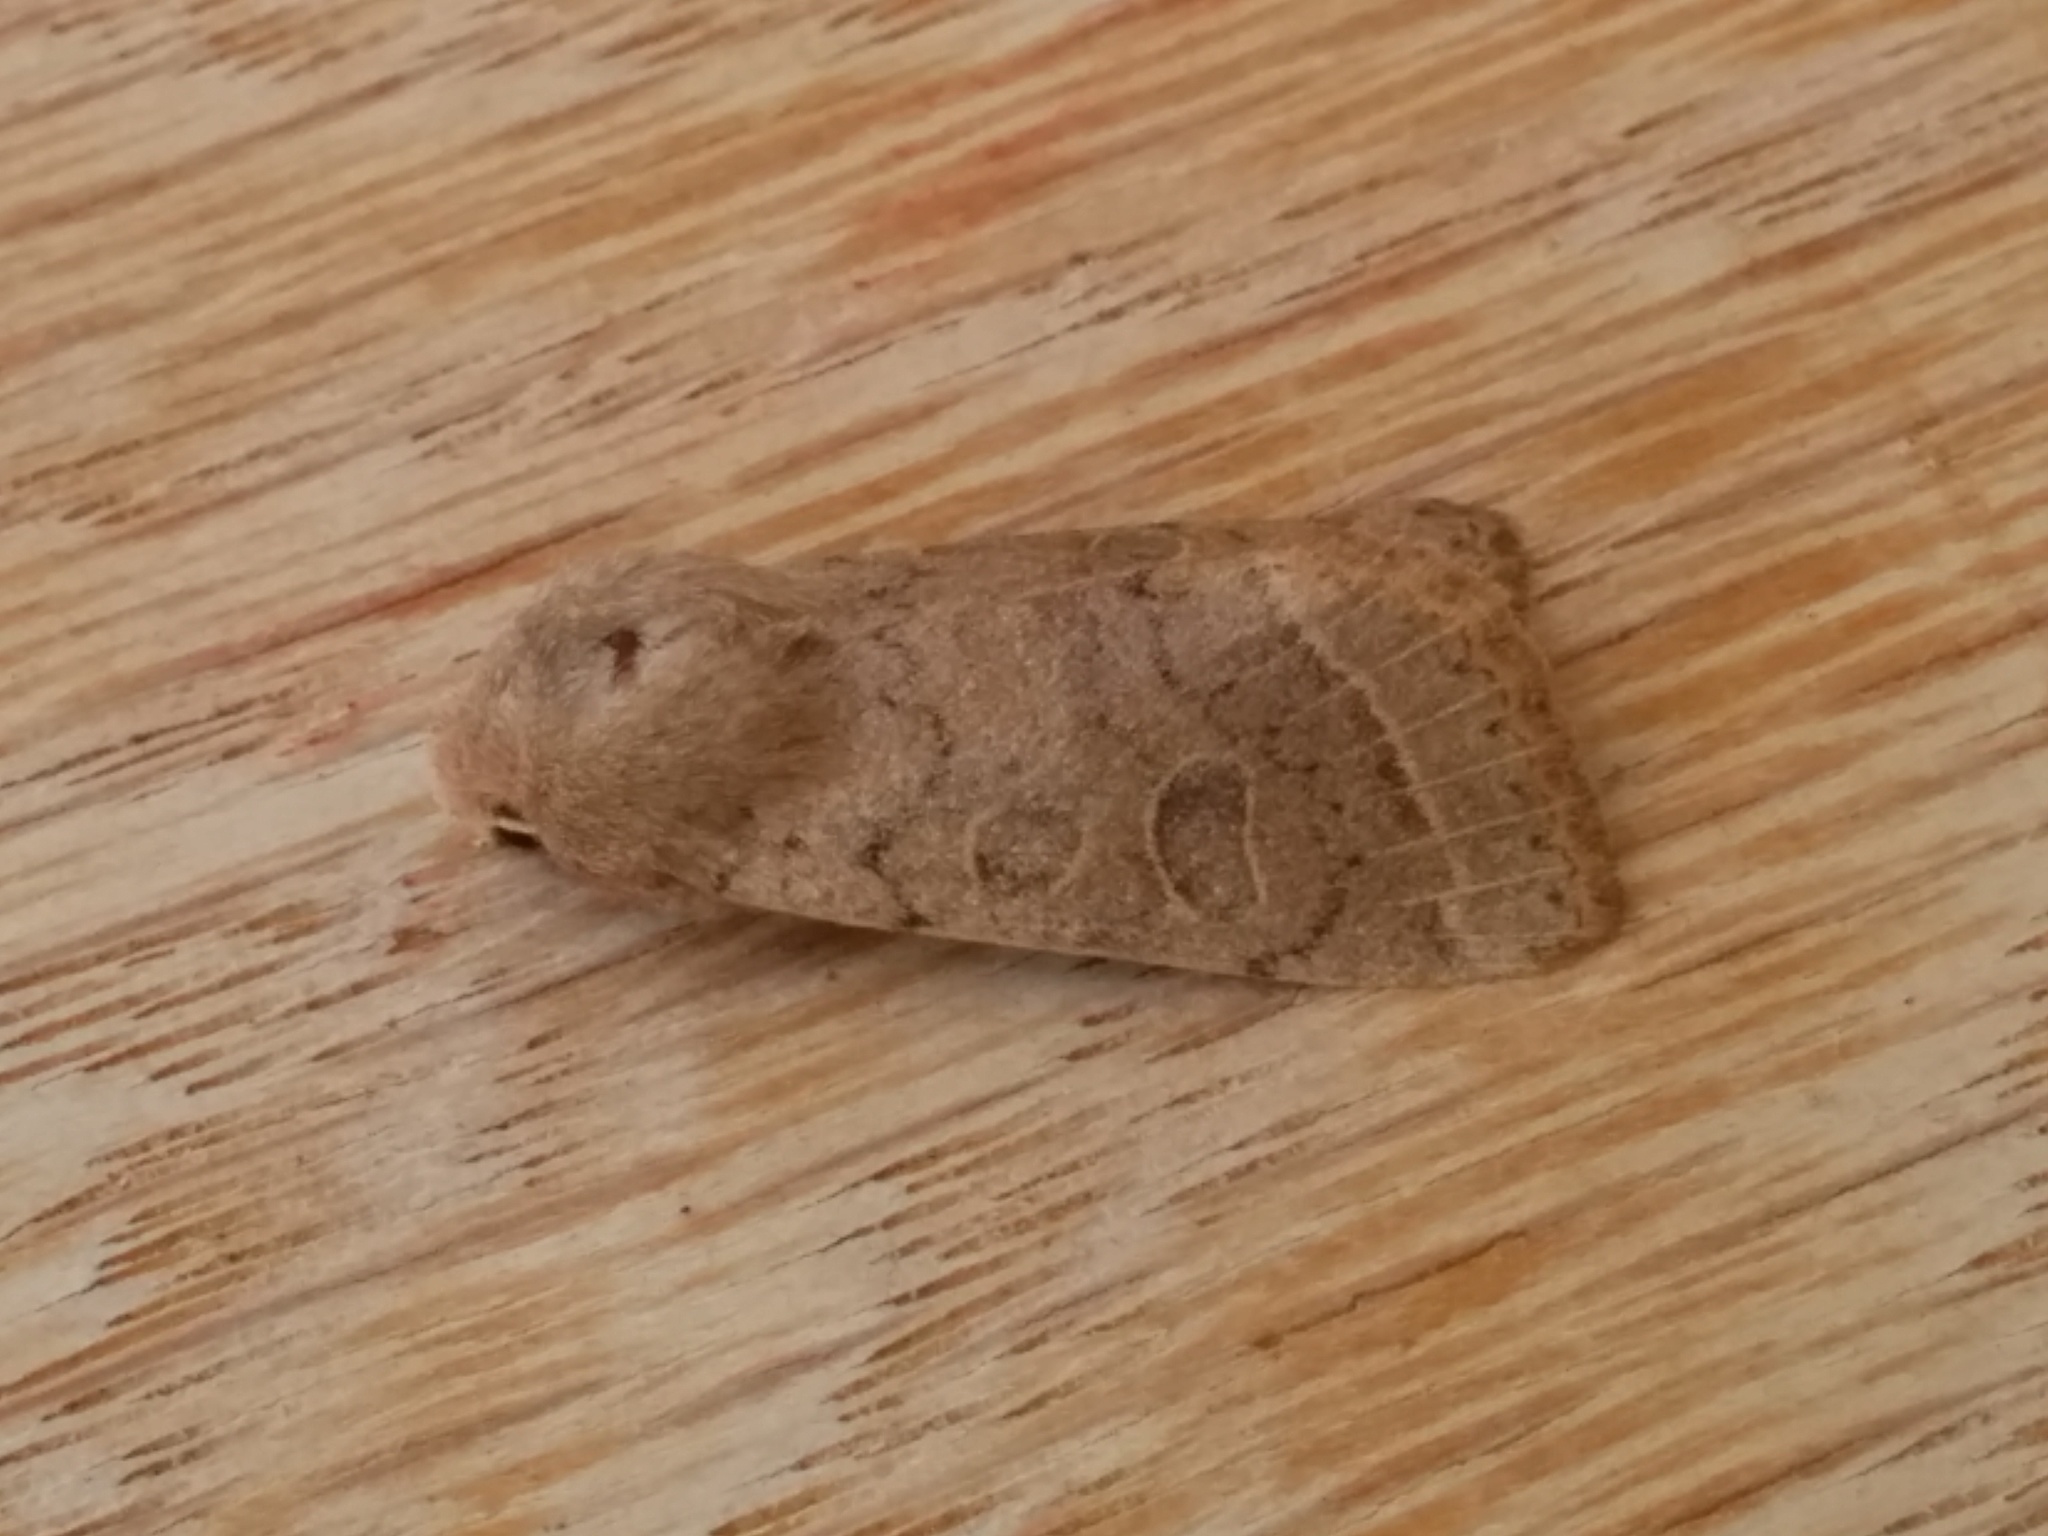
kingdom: Animalia
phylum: Arthropoda
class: Insecta
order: Lepidoptera
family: Noctuidae
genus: Orthosia
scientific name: Orthosia cerasi
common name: Common quaker
